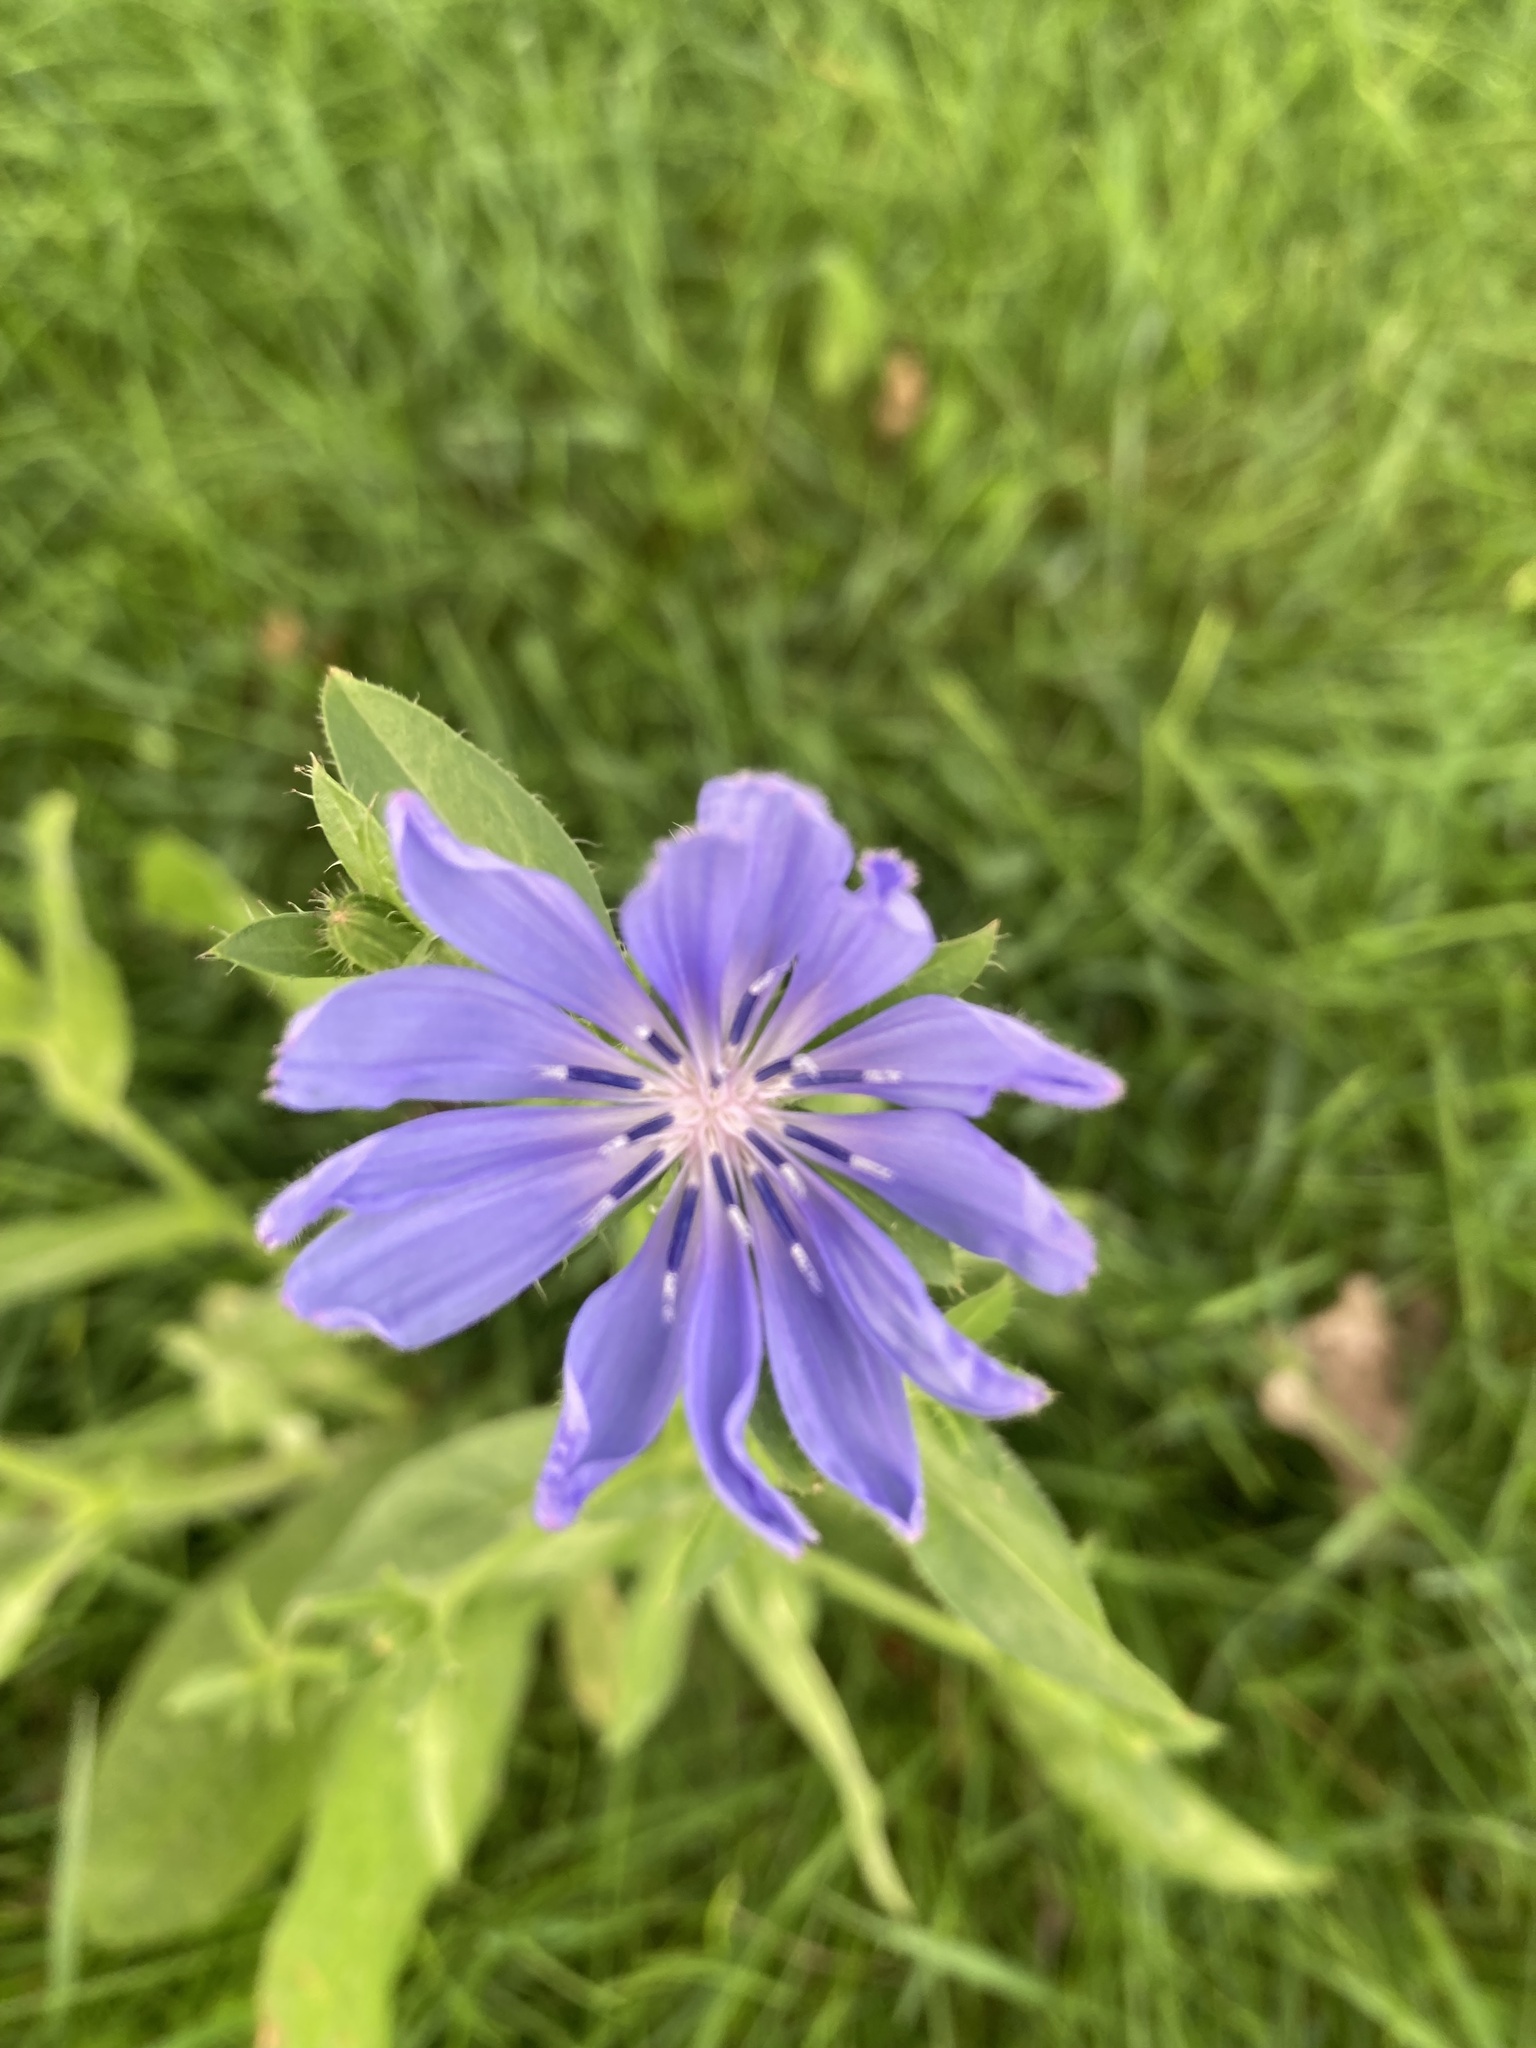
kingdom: Plantae
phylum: Tracheophyta
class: Magnoliopsida
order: Asterales
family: Asteraceae
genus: Cichorium
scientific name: Cichorium intybus
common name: Chicory
